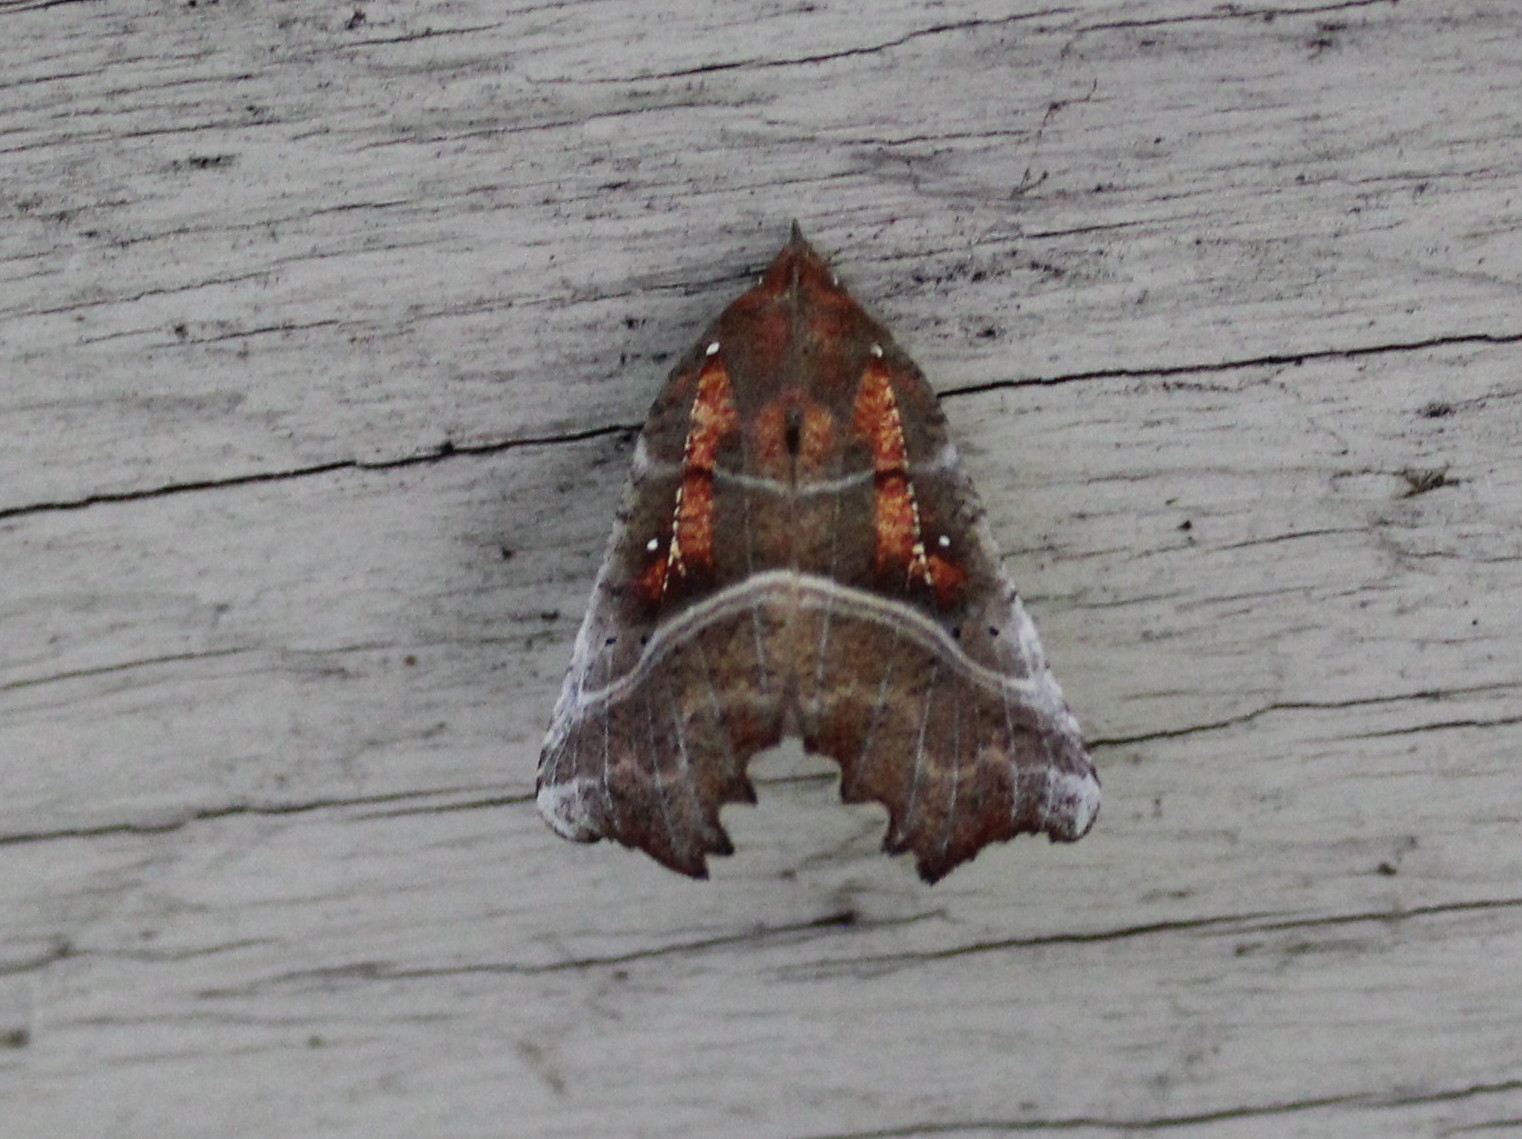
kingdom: Animalia
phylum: Arthropoda
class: Insecta
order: Lepidoptera
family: Erebidae
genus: Scoliopteryx
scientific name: Scoliopteryx libatrix
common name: Herald
